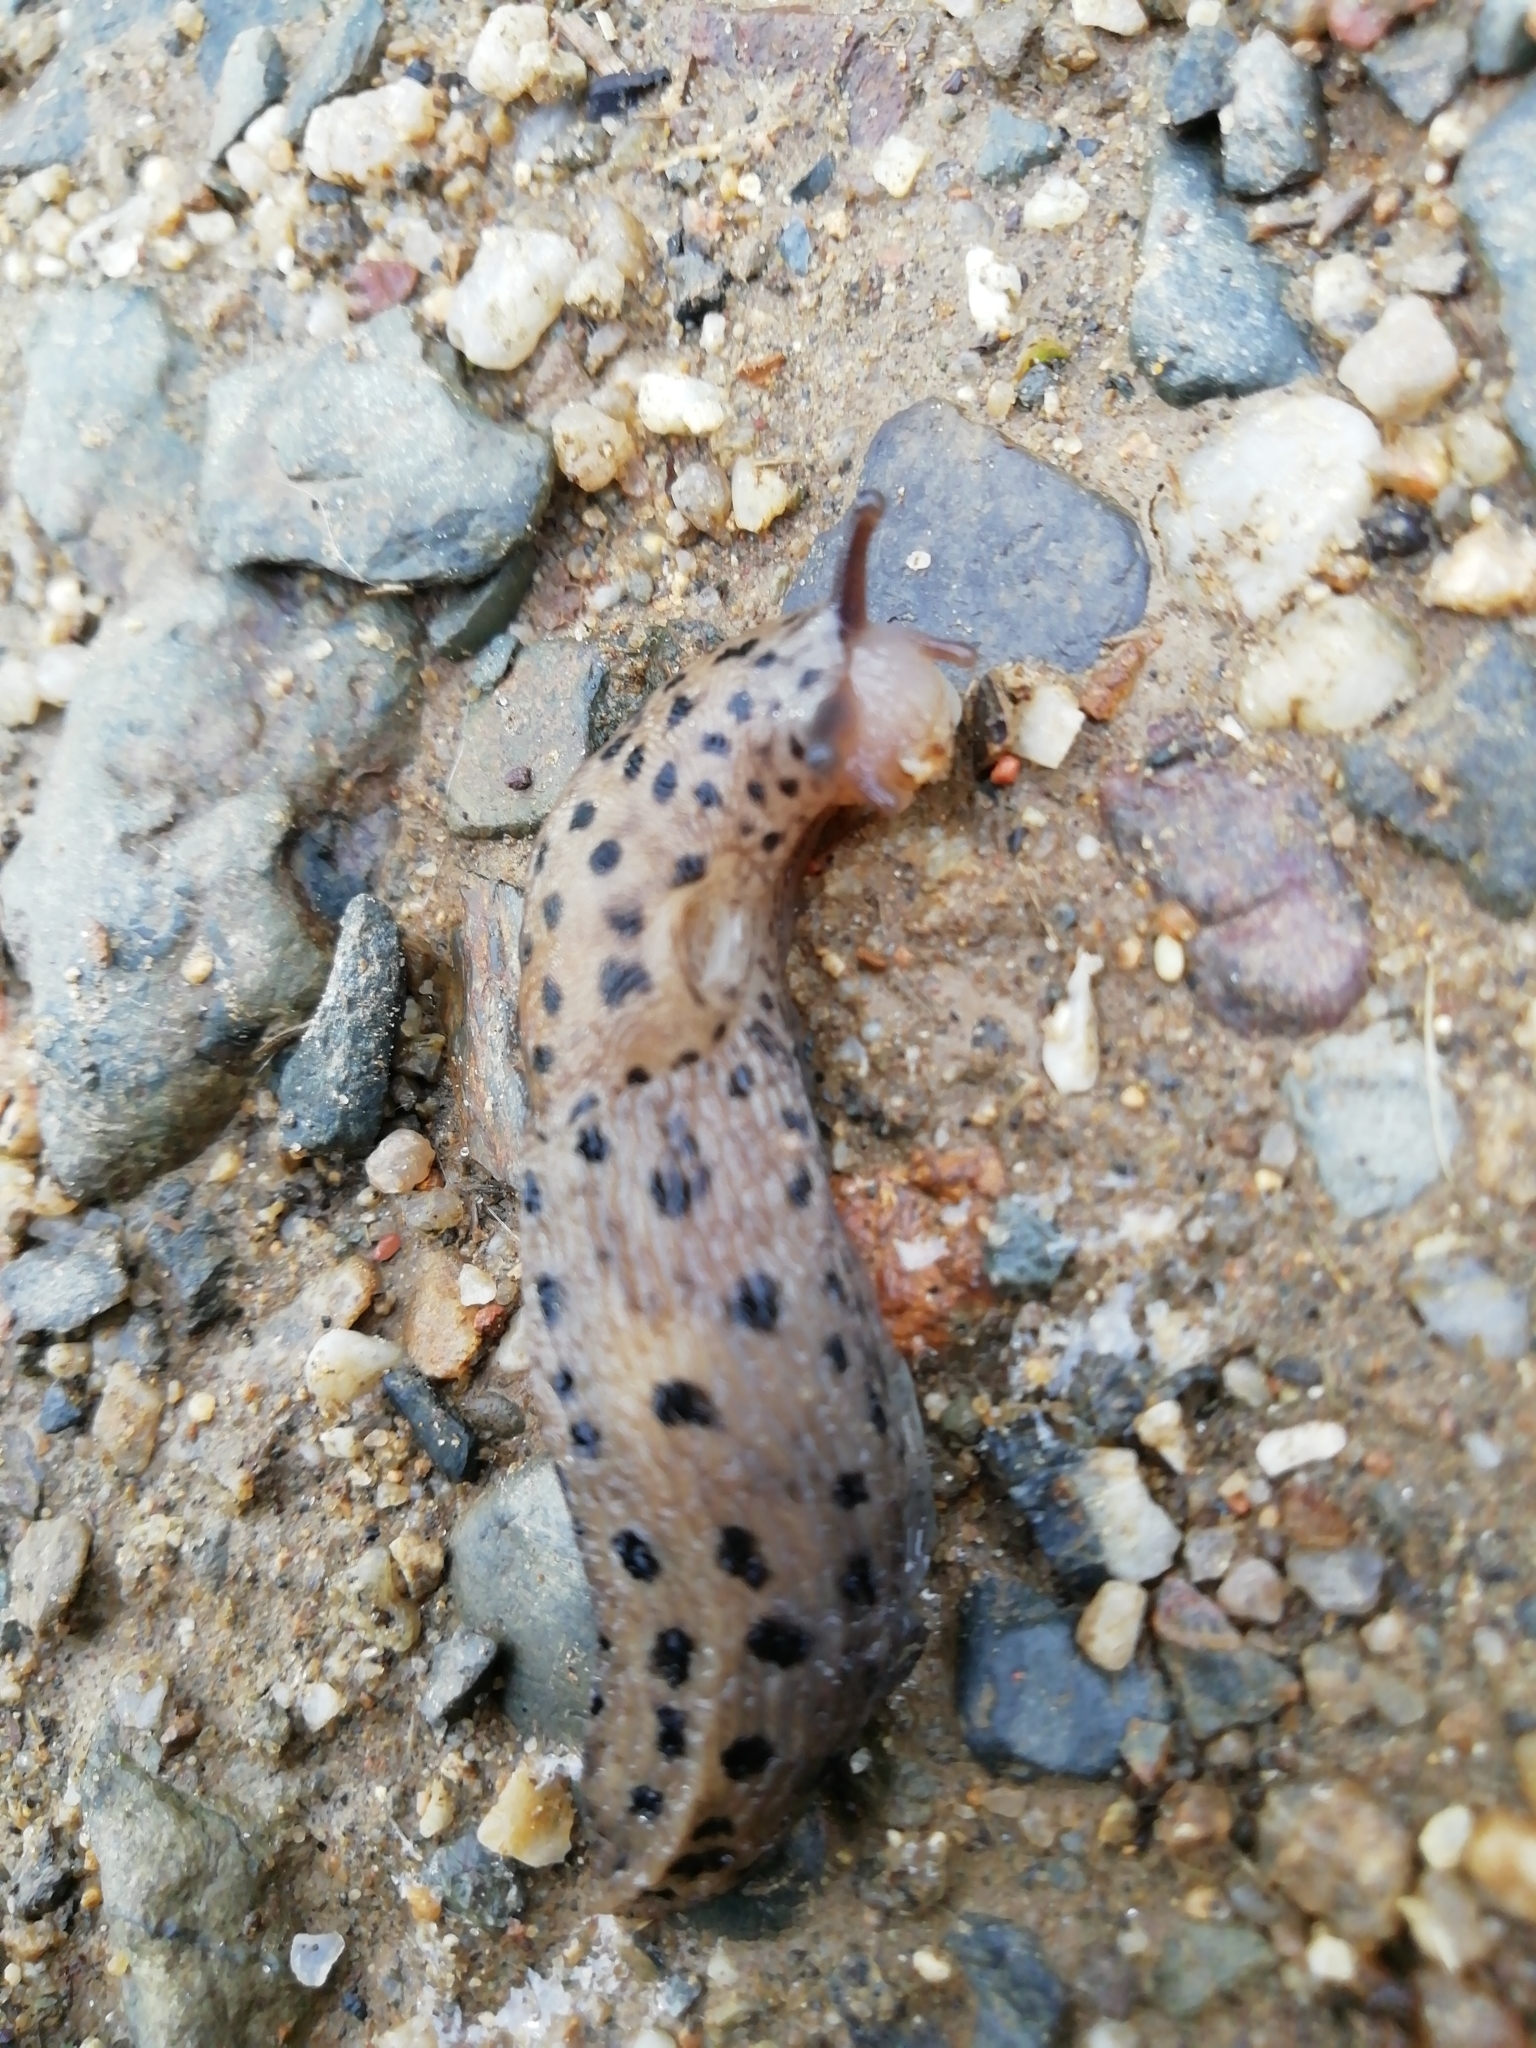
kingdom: Animalia
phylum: Mollusca
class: Gastropoda
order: Stylommatophora
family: Limacidae
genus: Limax
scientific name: Limax maximus
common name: Great grey slug
